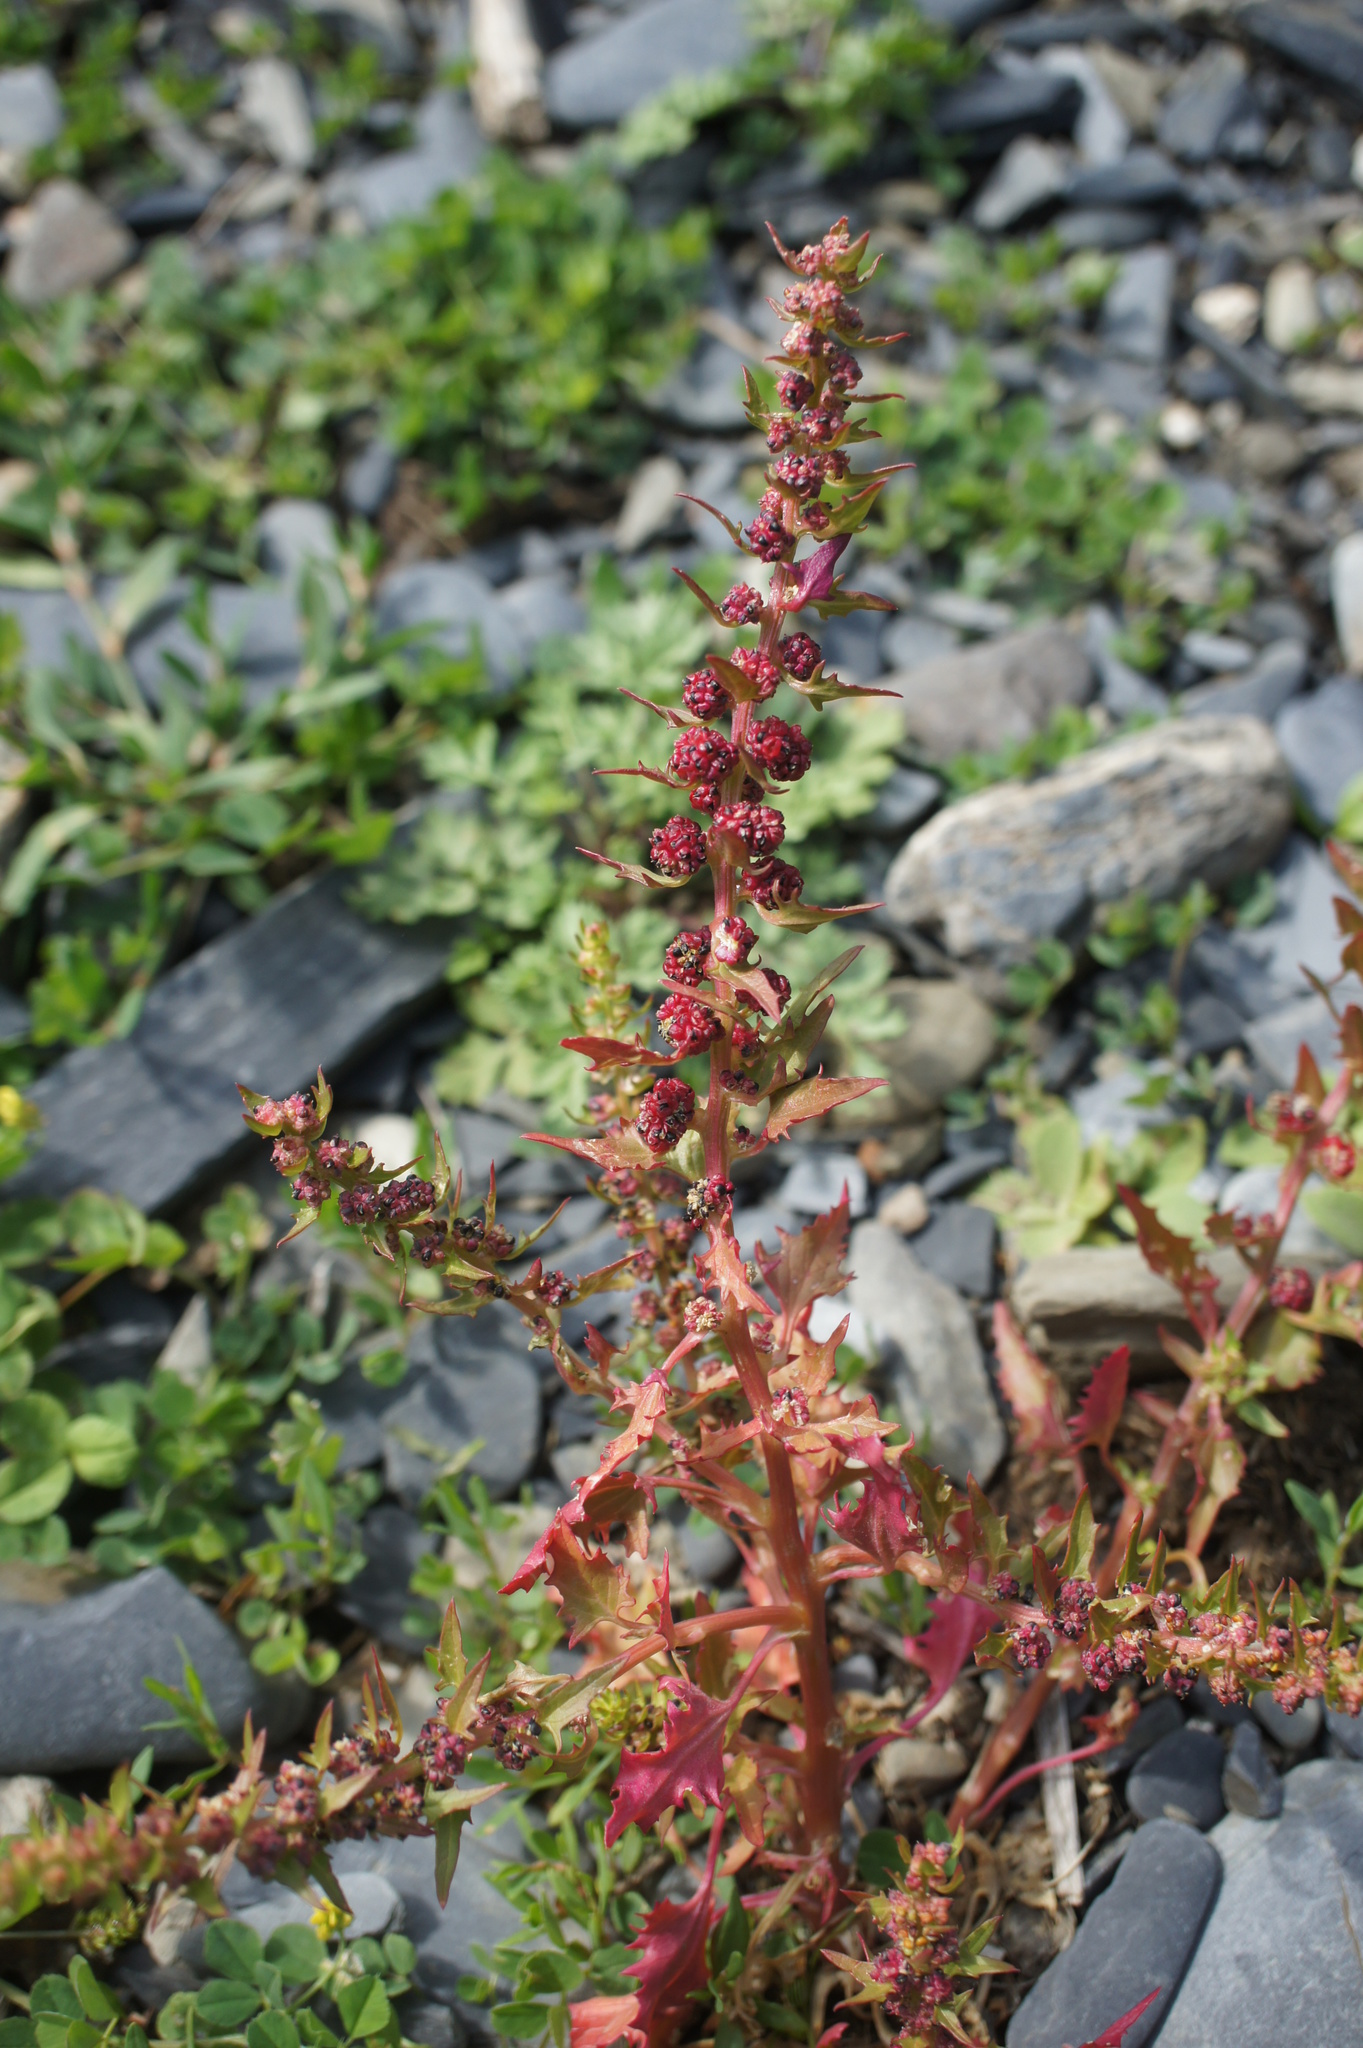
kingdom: Plantae
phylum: Tracheophyta
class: Magnoliopsida
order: Caryophyllales
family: Amaranthaceae
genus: Blitum
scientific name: Blitum virgatum
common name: Strawberry goosefoot
